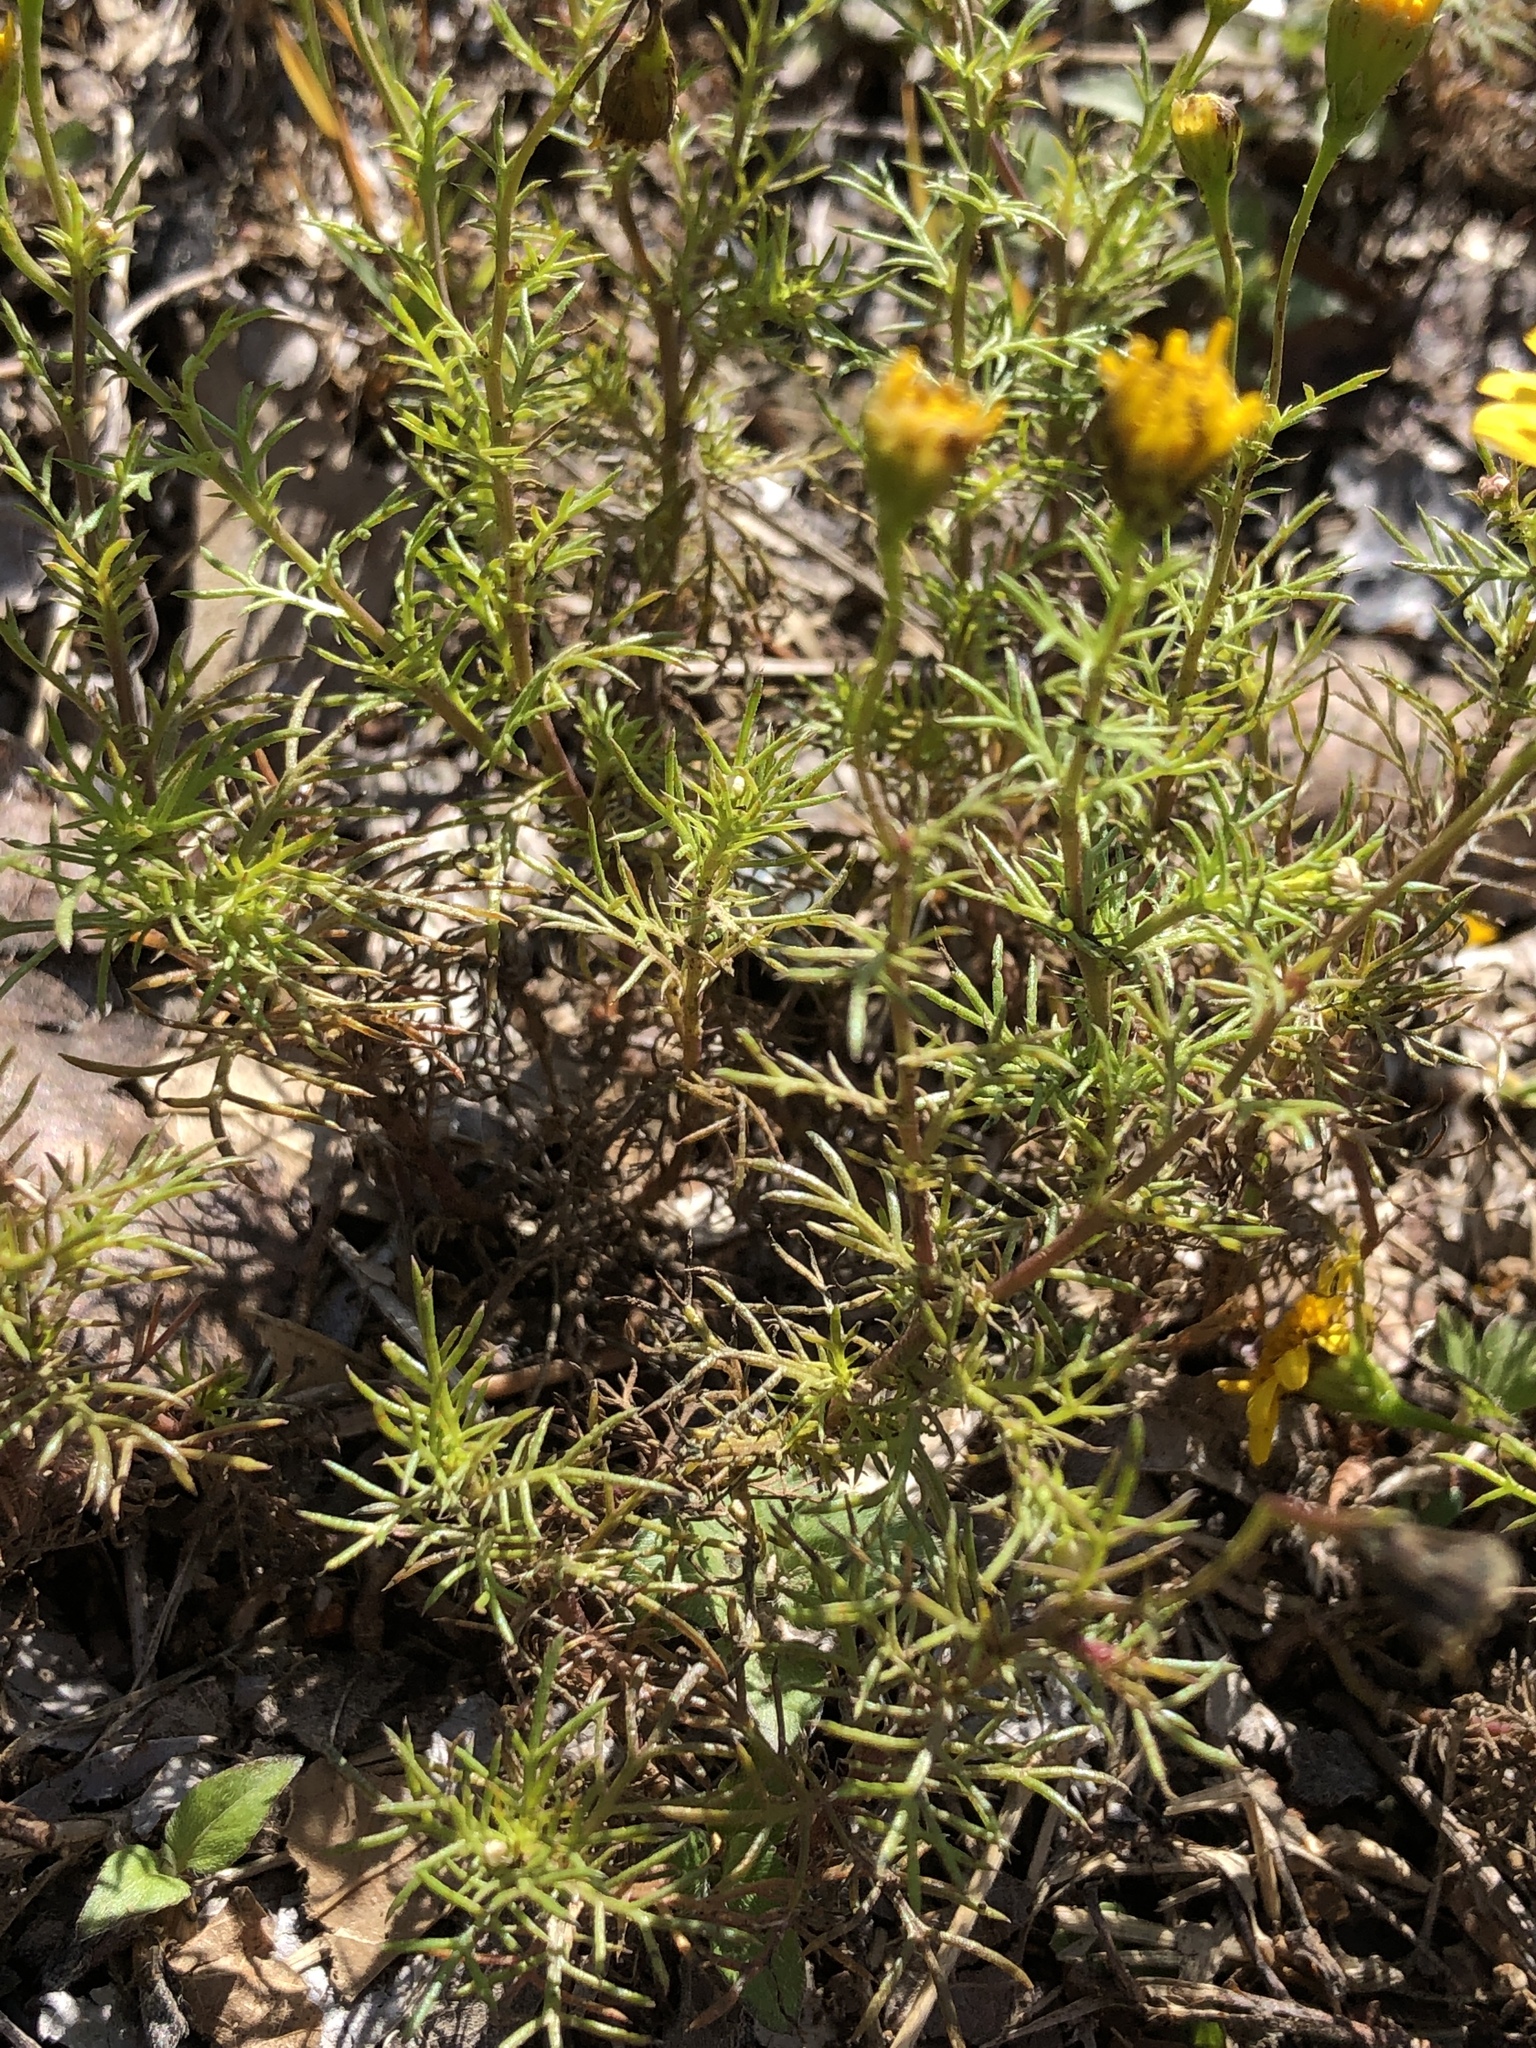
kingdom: Plantae
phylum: Tracheophyta
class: Magnoliopsida
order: Asterales
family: Asteraceae
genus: Thymophylla
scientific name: Thymophylla pentachaeta
